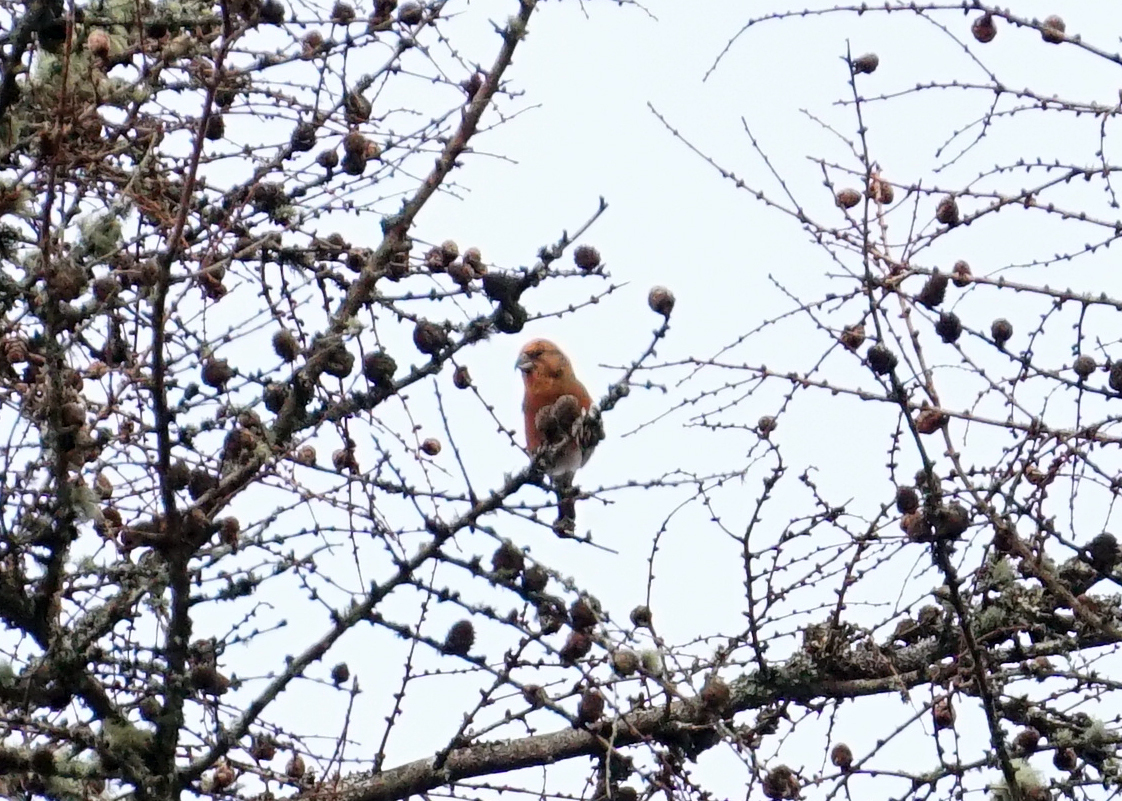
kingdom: Animalia
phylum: Chordata
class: Aves
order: Passeriformes
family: Fringillidae
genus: Loxia
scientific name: Loxia curvirostra
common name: Red crossbill
